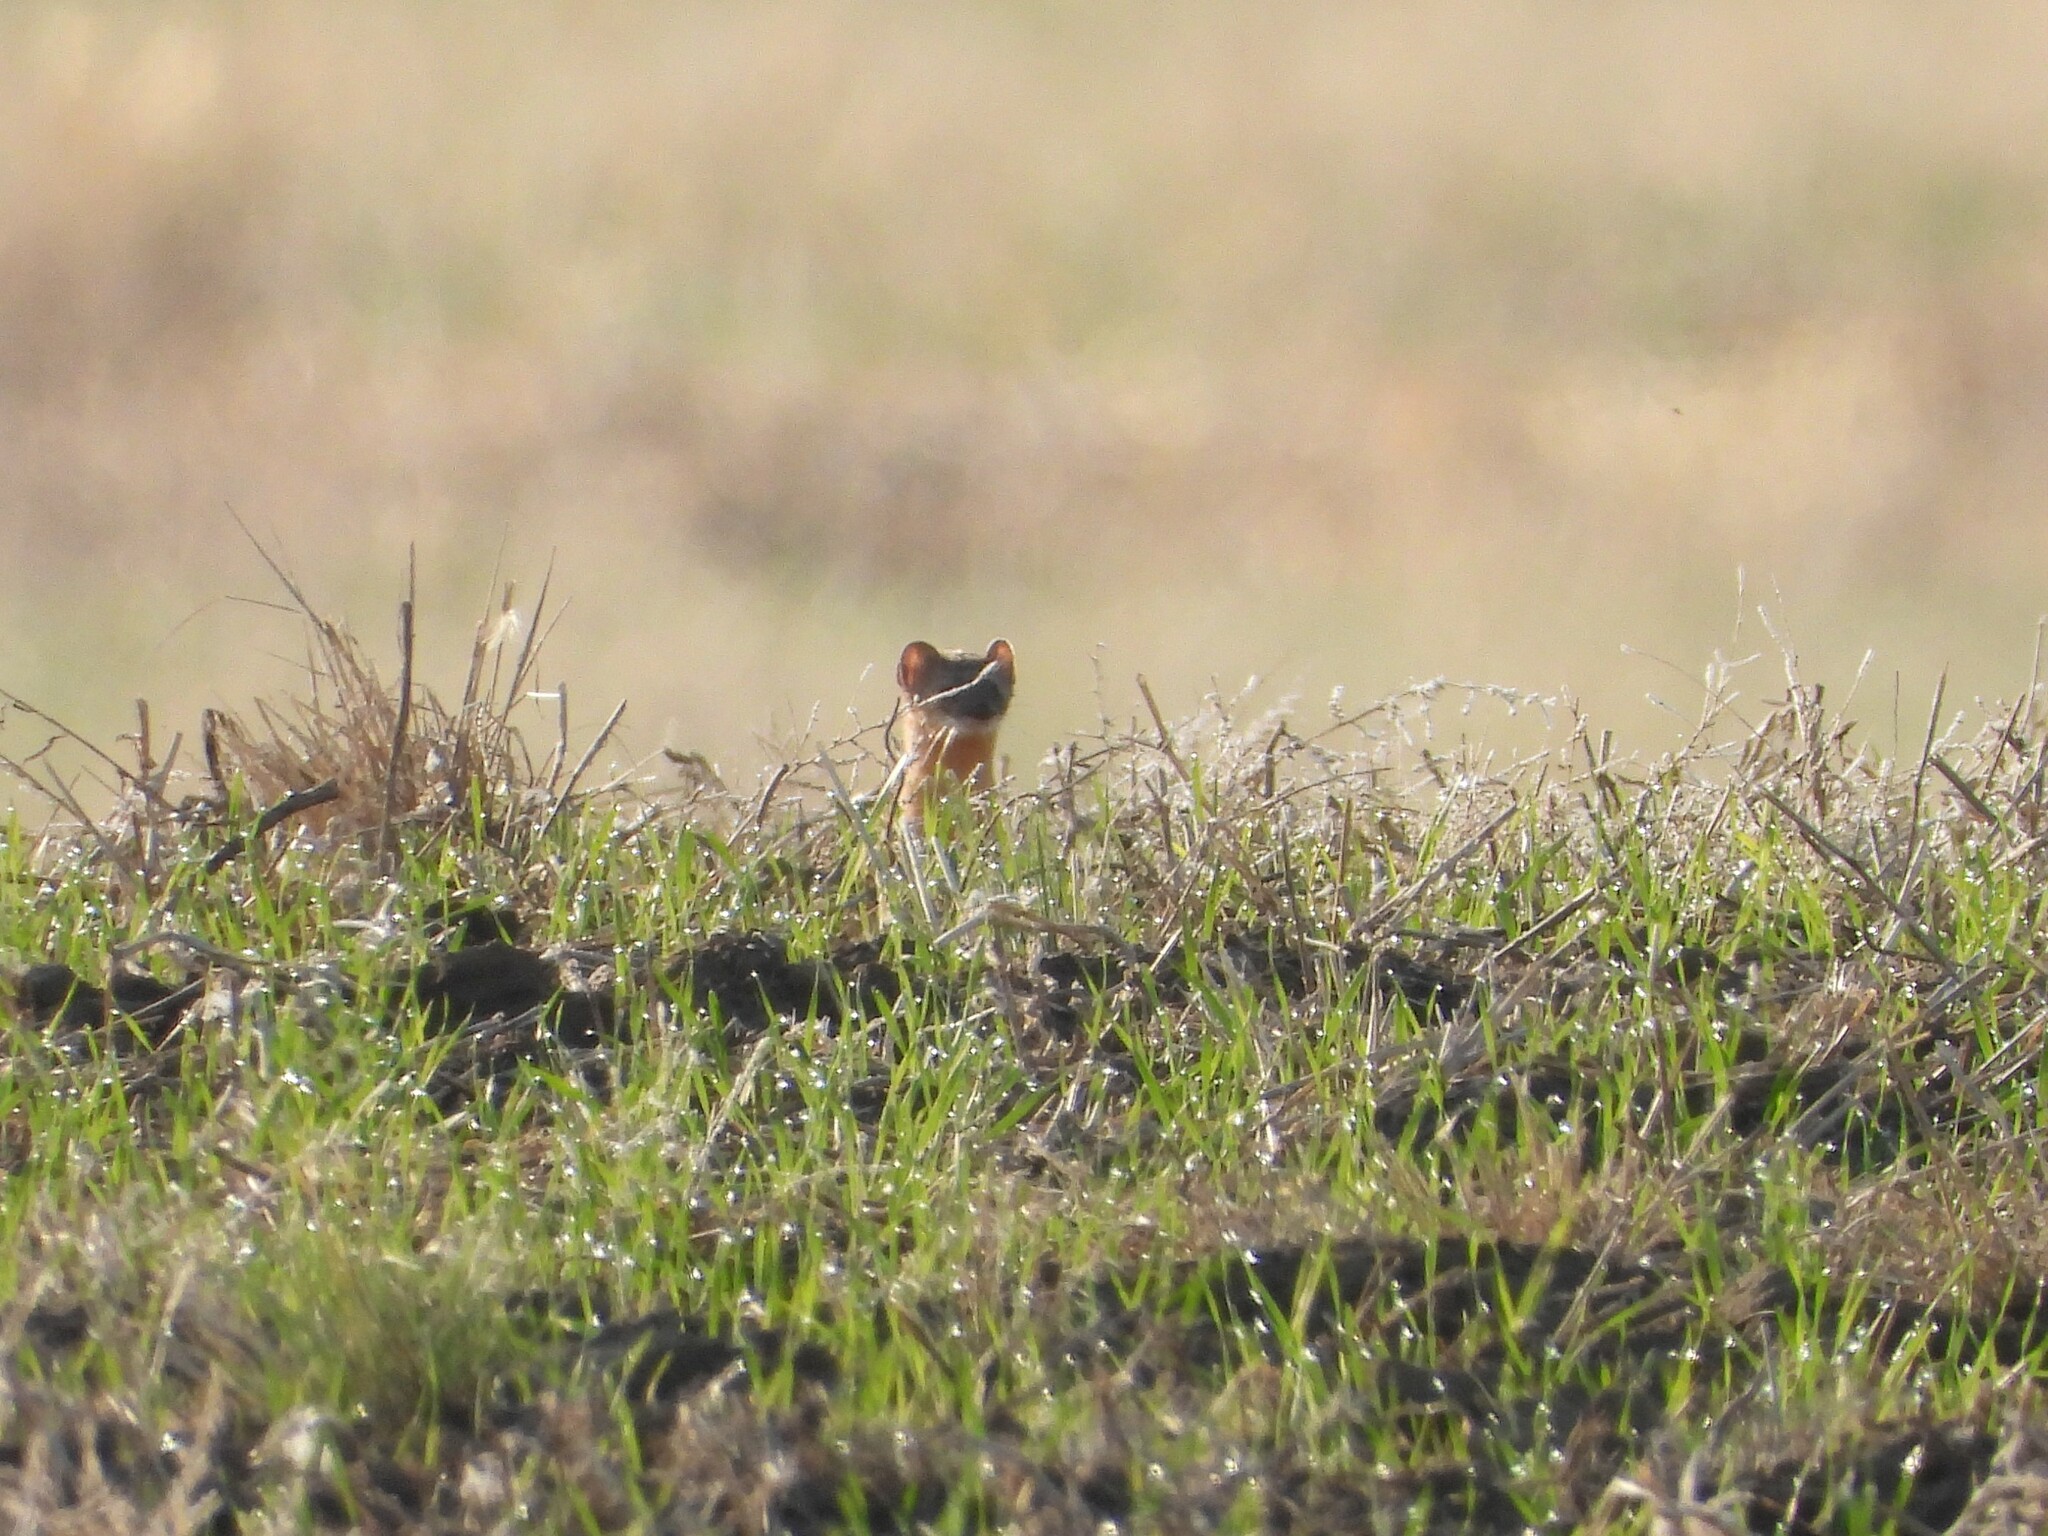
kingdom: Animalia
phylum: Chordata
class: Mammalia
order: Carnivora
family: Mustelidae
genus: Mustela
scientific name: Mustela
